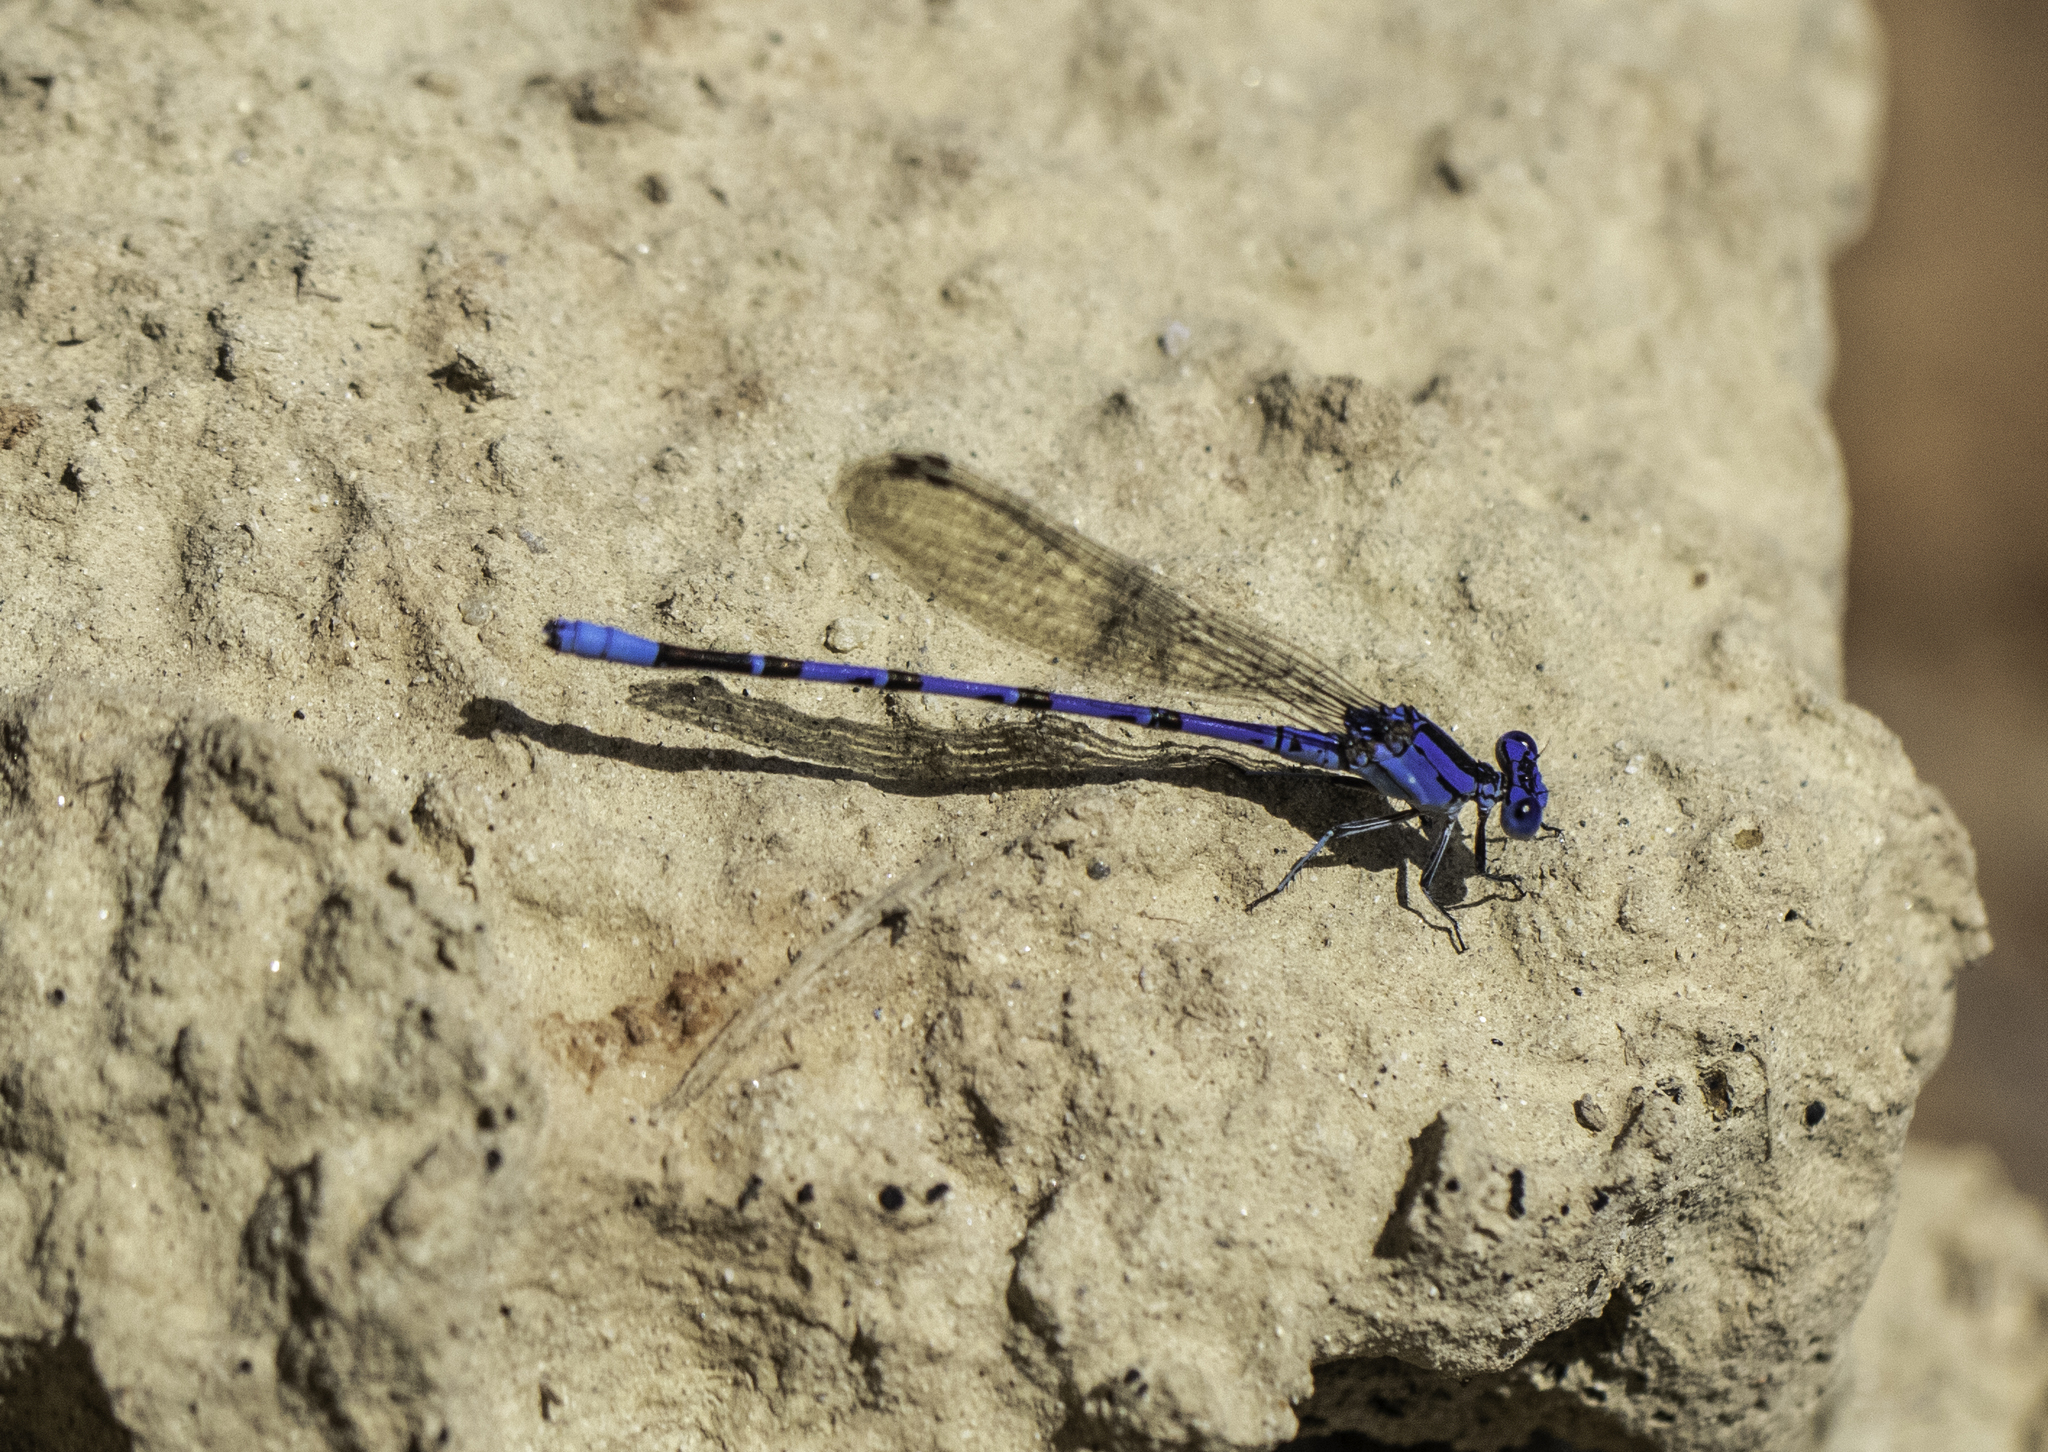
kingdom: Animalia
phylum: Arthropoda
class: Insecta
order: Odonata
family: Coenagrionidae
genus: Argia
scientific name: Argia vivida
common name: Vivid dancer
